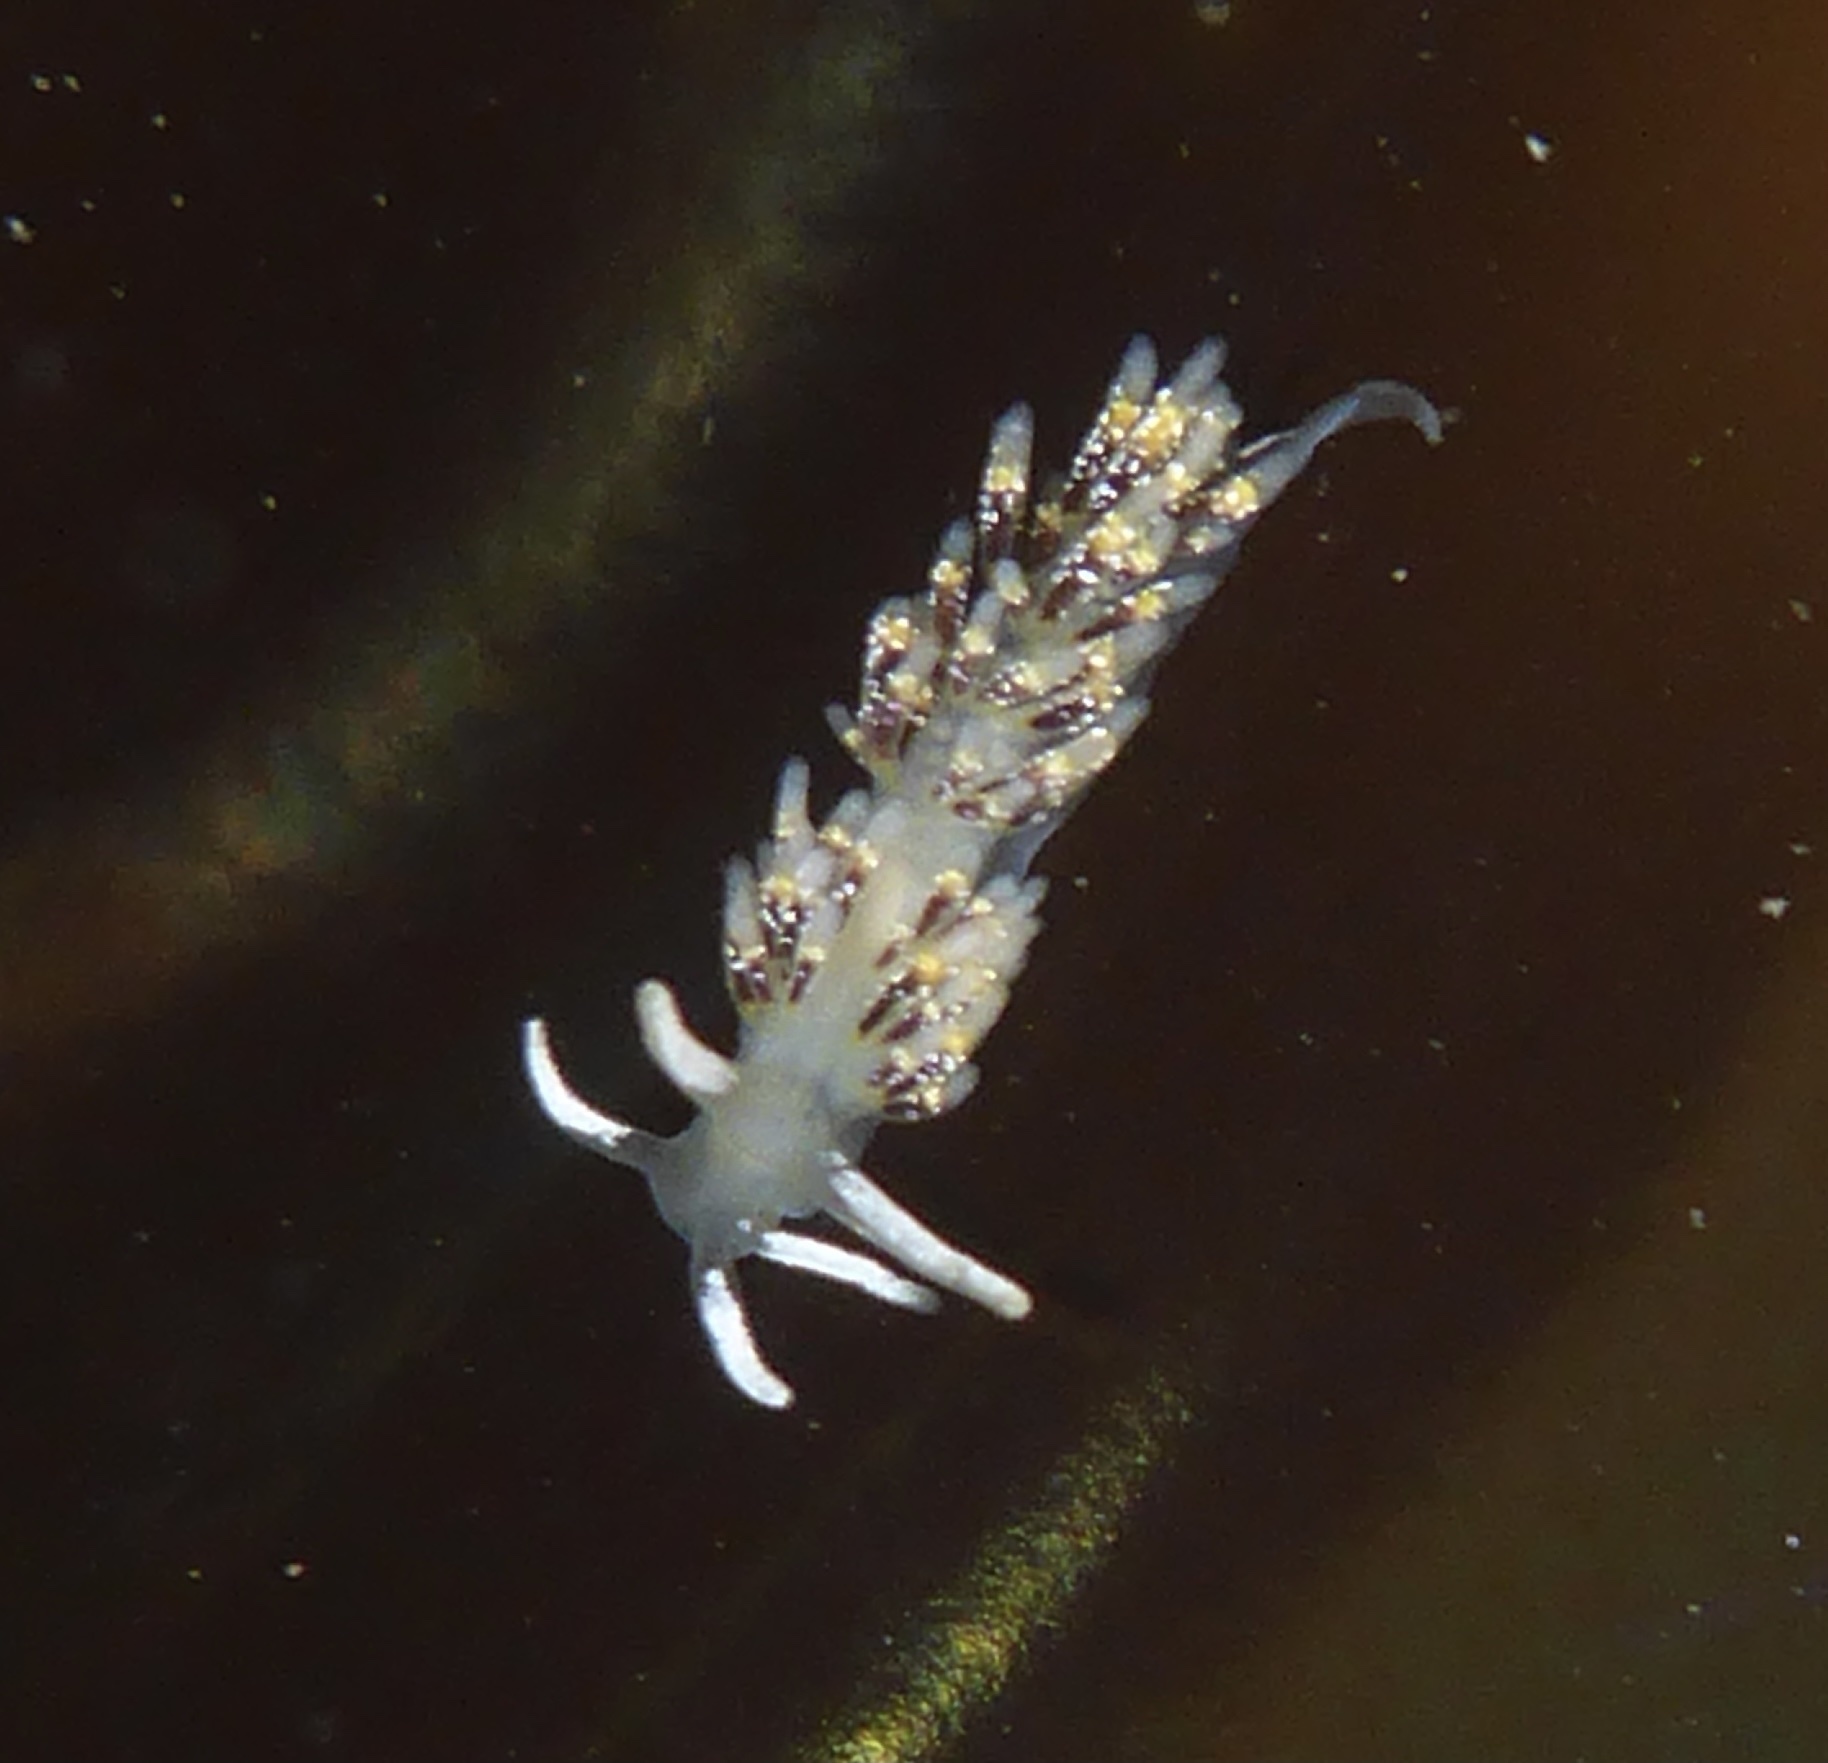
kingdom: Animalia
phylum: Mollusca
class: Gastropoda
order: Nudibranchia
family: Trinchesiidae
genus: Zelentia
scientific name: Zelentia fulgens
